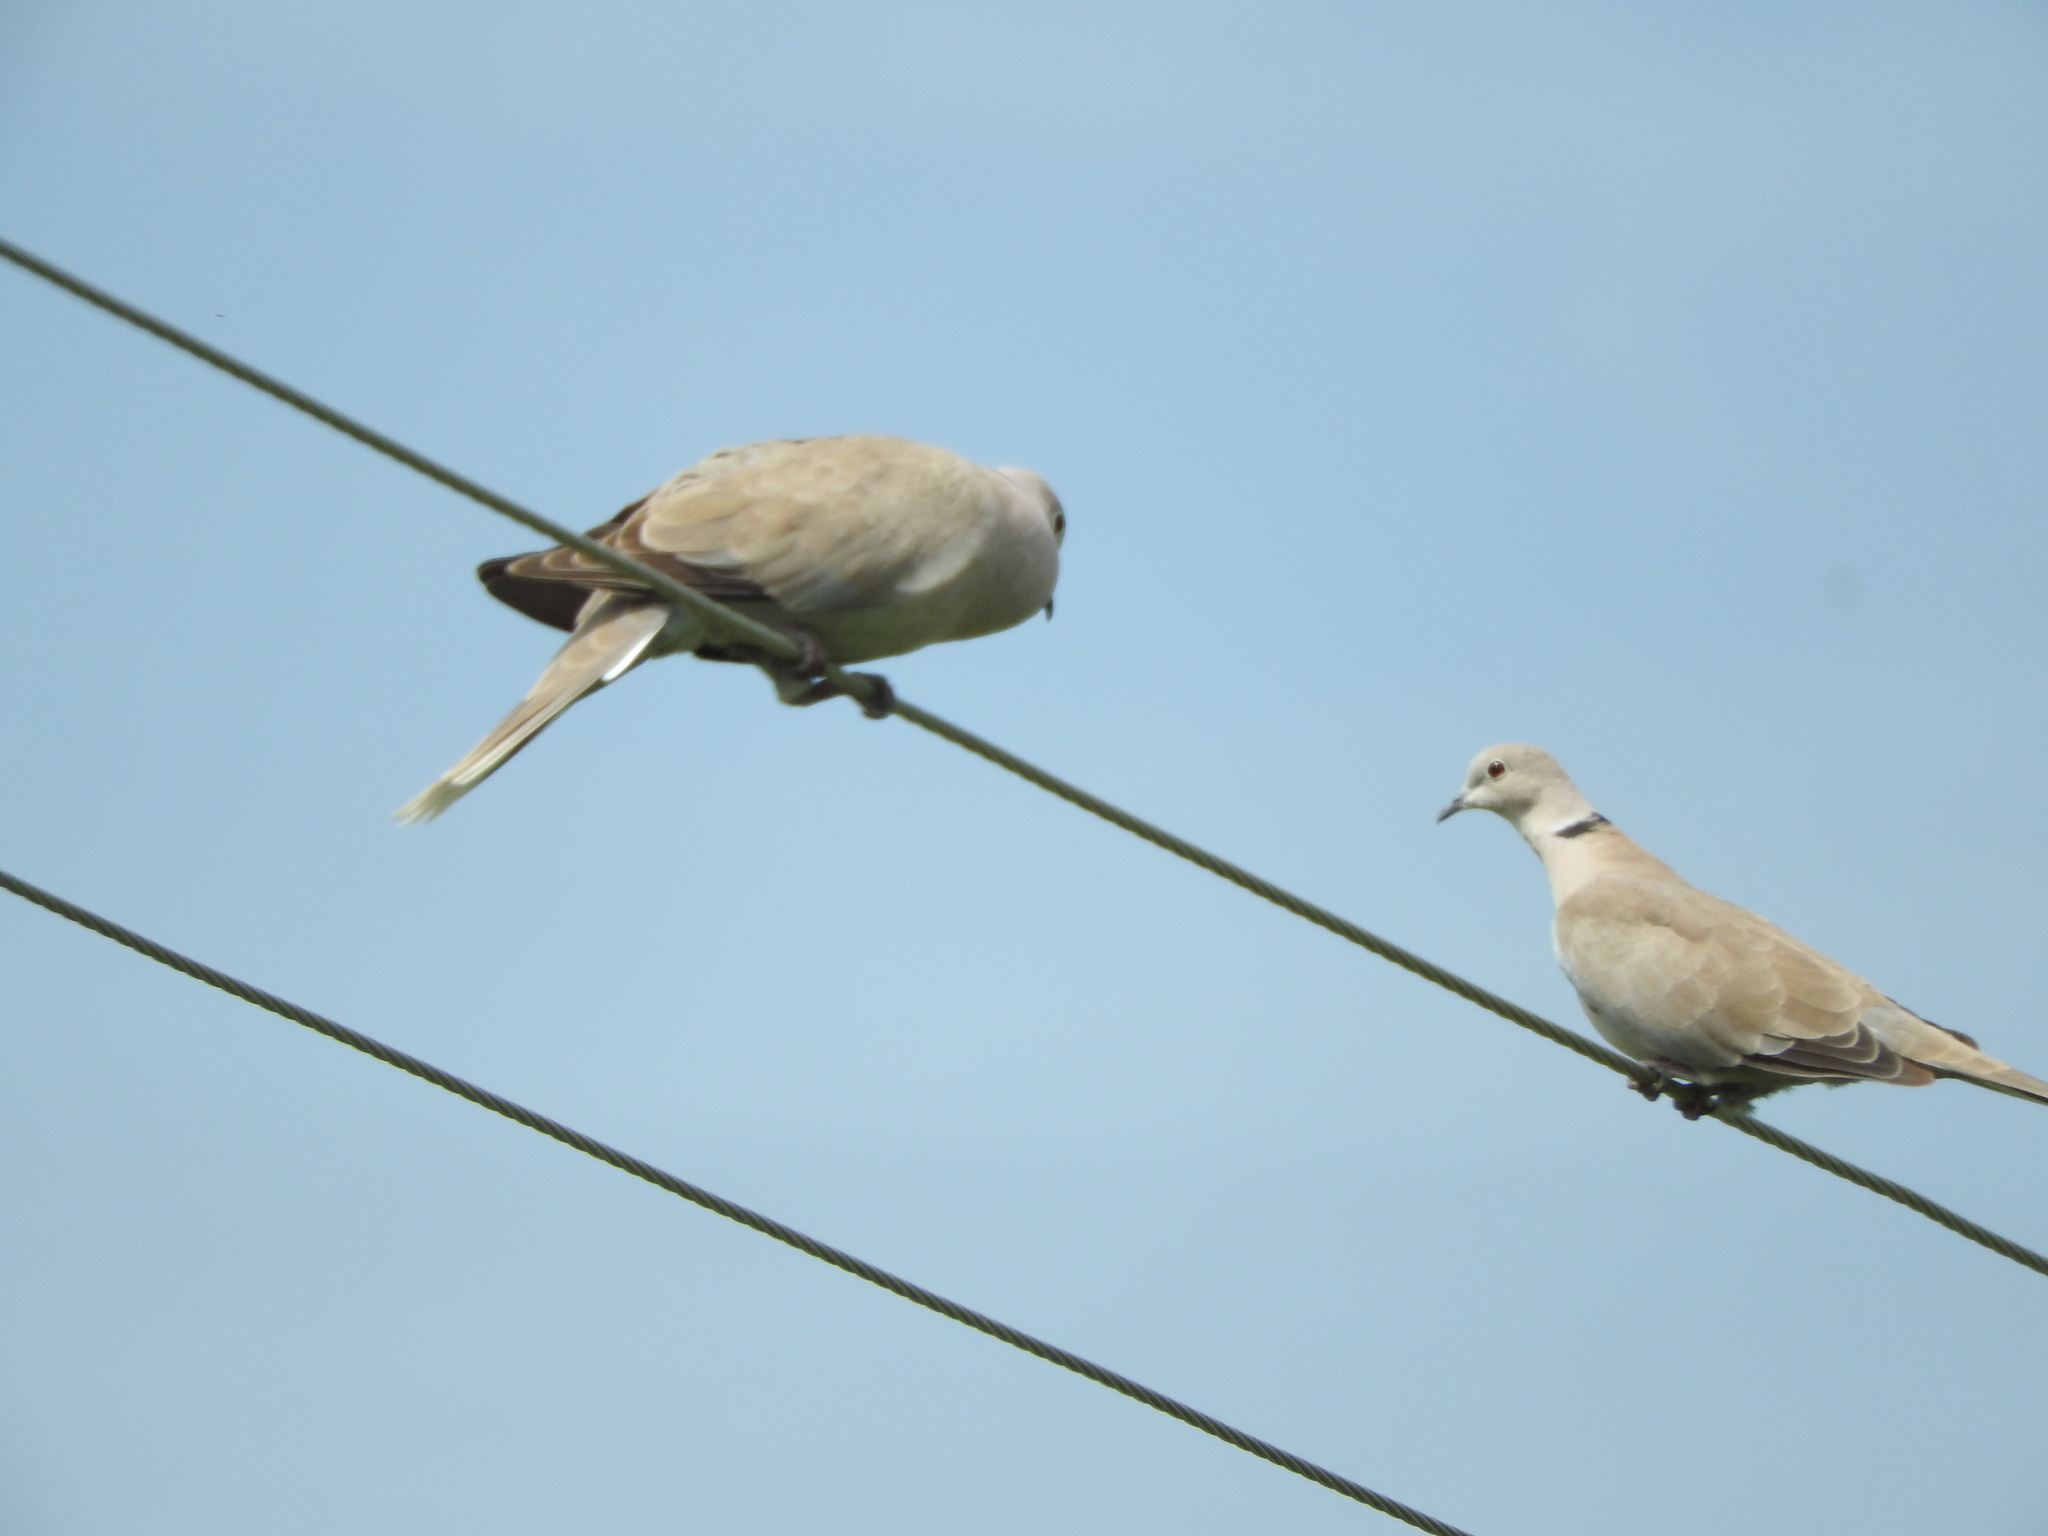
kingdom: Animalia
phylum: Chordata
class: Aves
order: Columbiformes
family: Columbidae
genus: Streptopelia
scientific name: Streptopelia decaocto
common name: Eurasian collared dove
